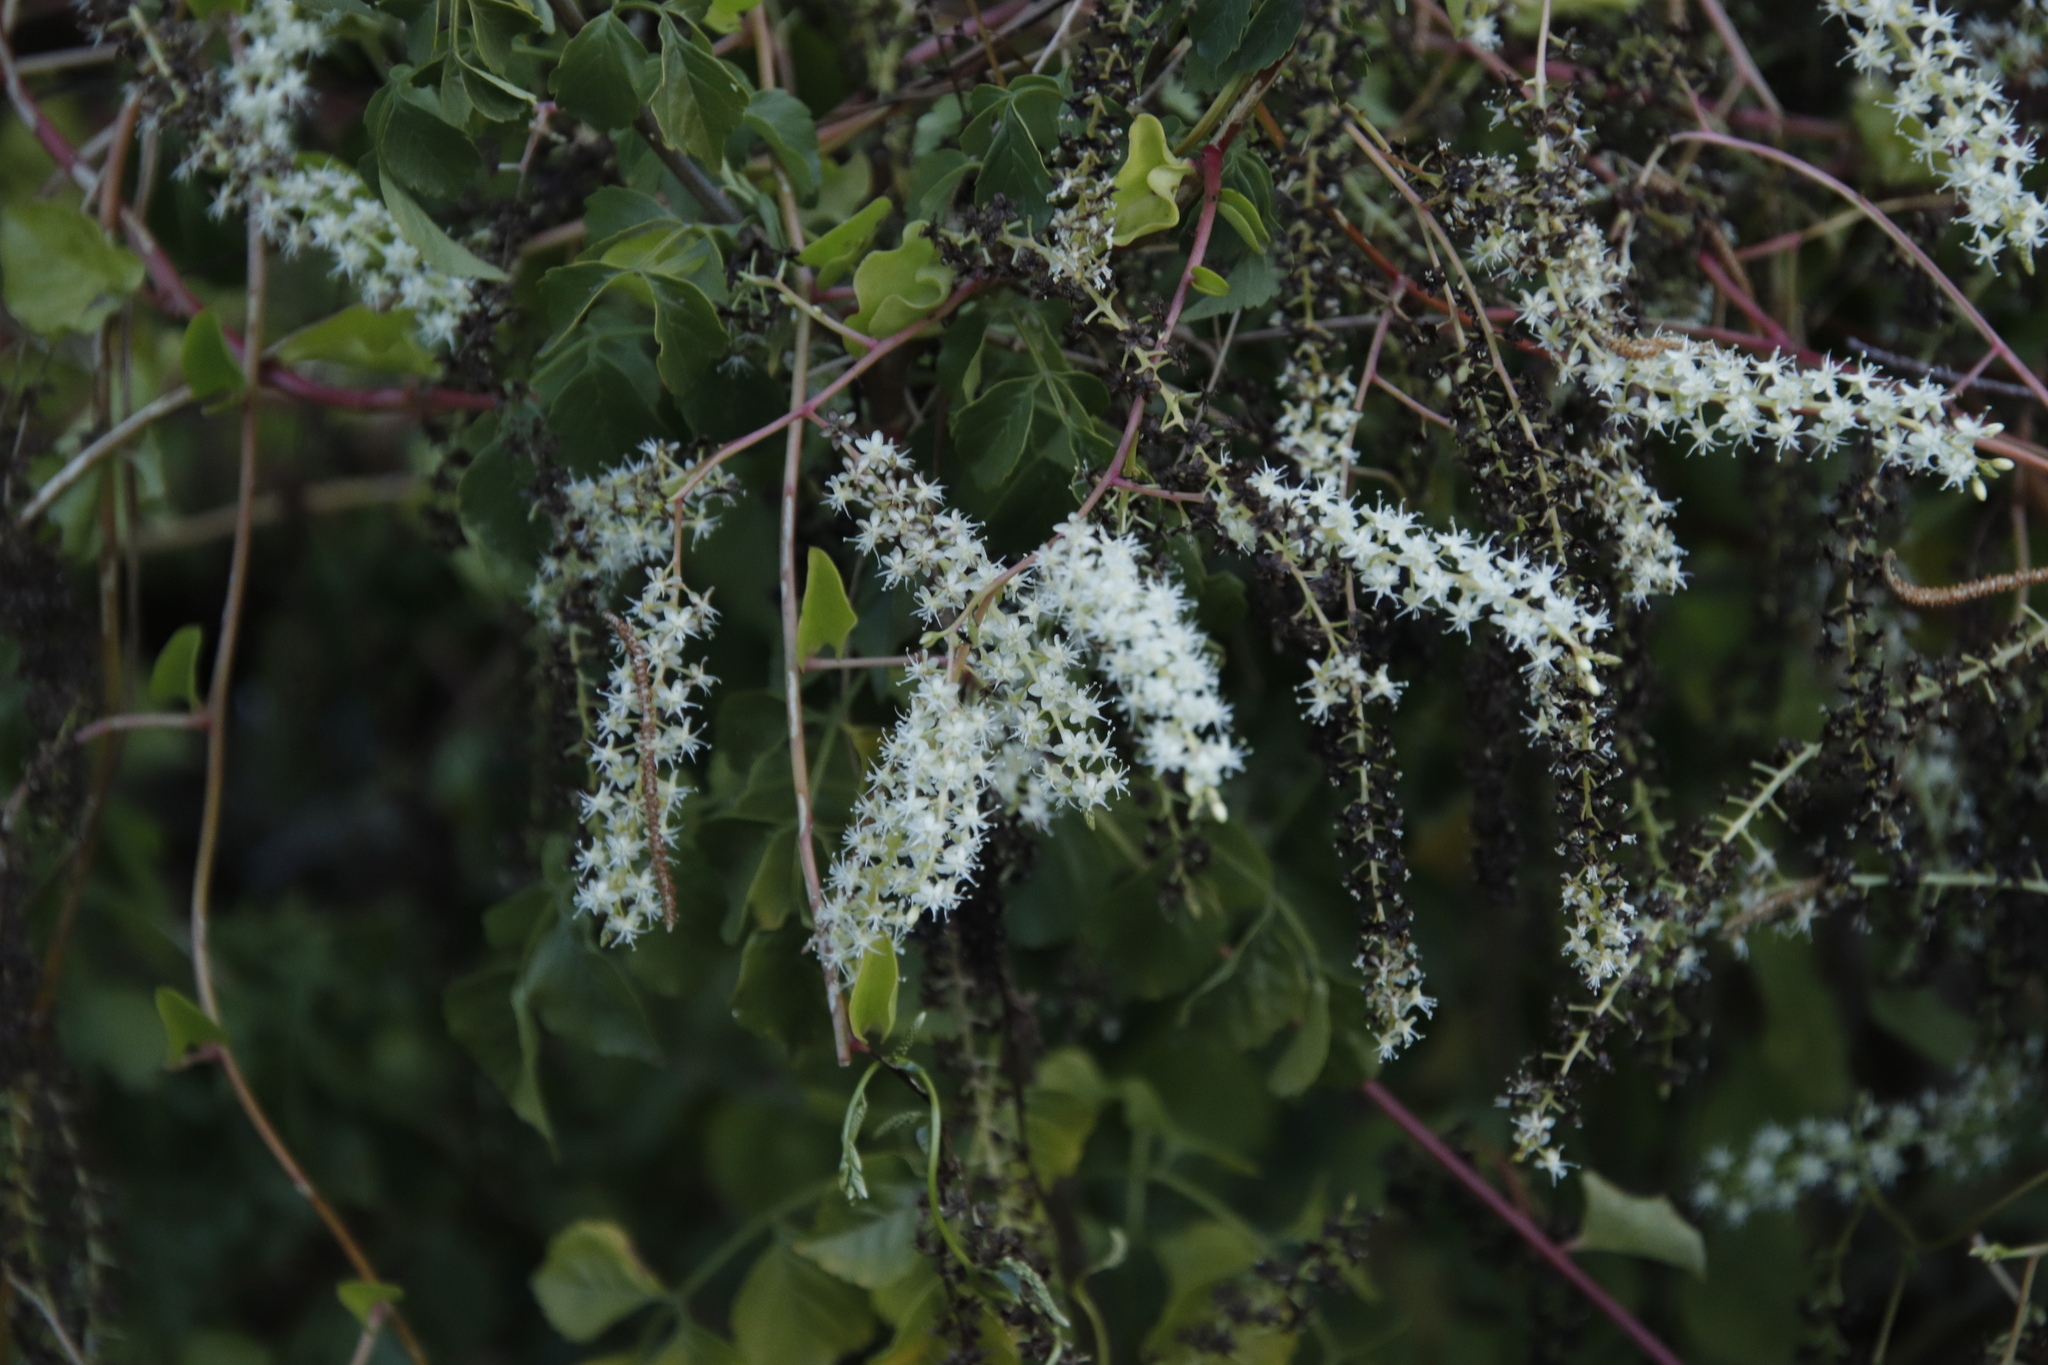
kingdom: Plantae
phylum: Tracheophyta
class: Magnoliopsida
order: Caryophyllales
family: Basellaceae
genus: Anredera
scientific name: Anredera cordifolia
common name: Heartleaf madeiravine
